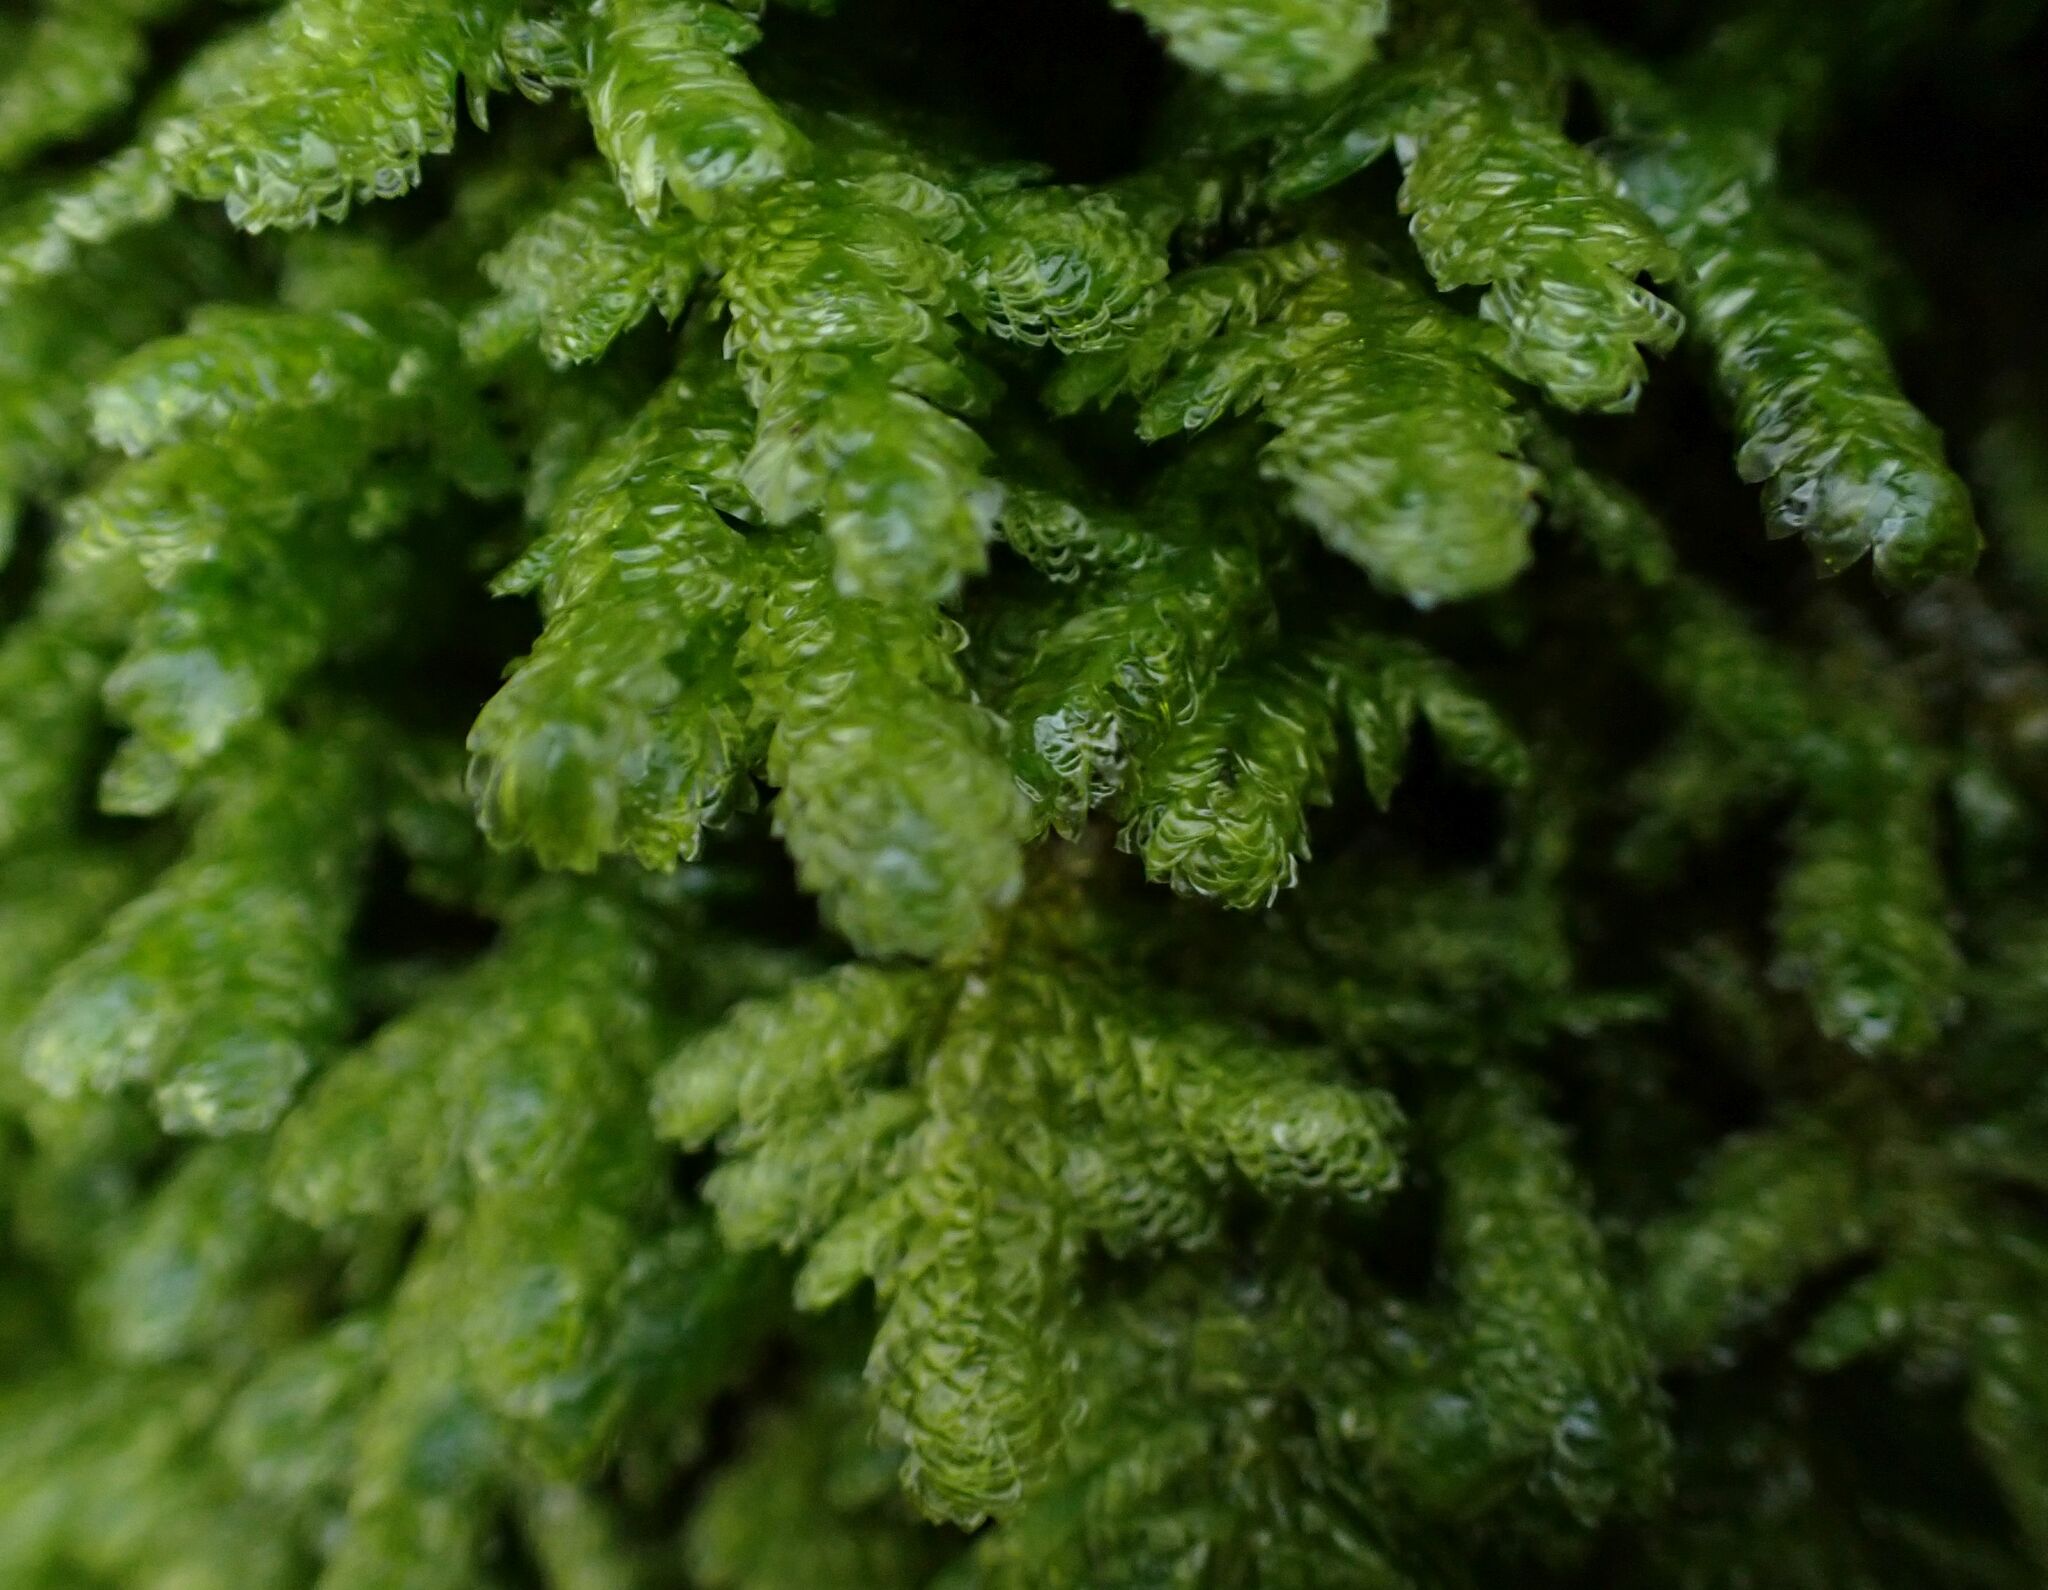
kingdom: Plantae
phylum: Bryophyta
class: Bryopsida
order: Hypnales
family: Neckeraceae
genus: Exsertotheca
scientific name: Exsertotheca crispa
